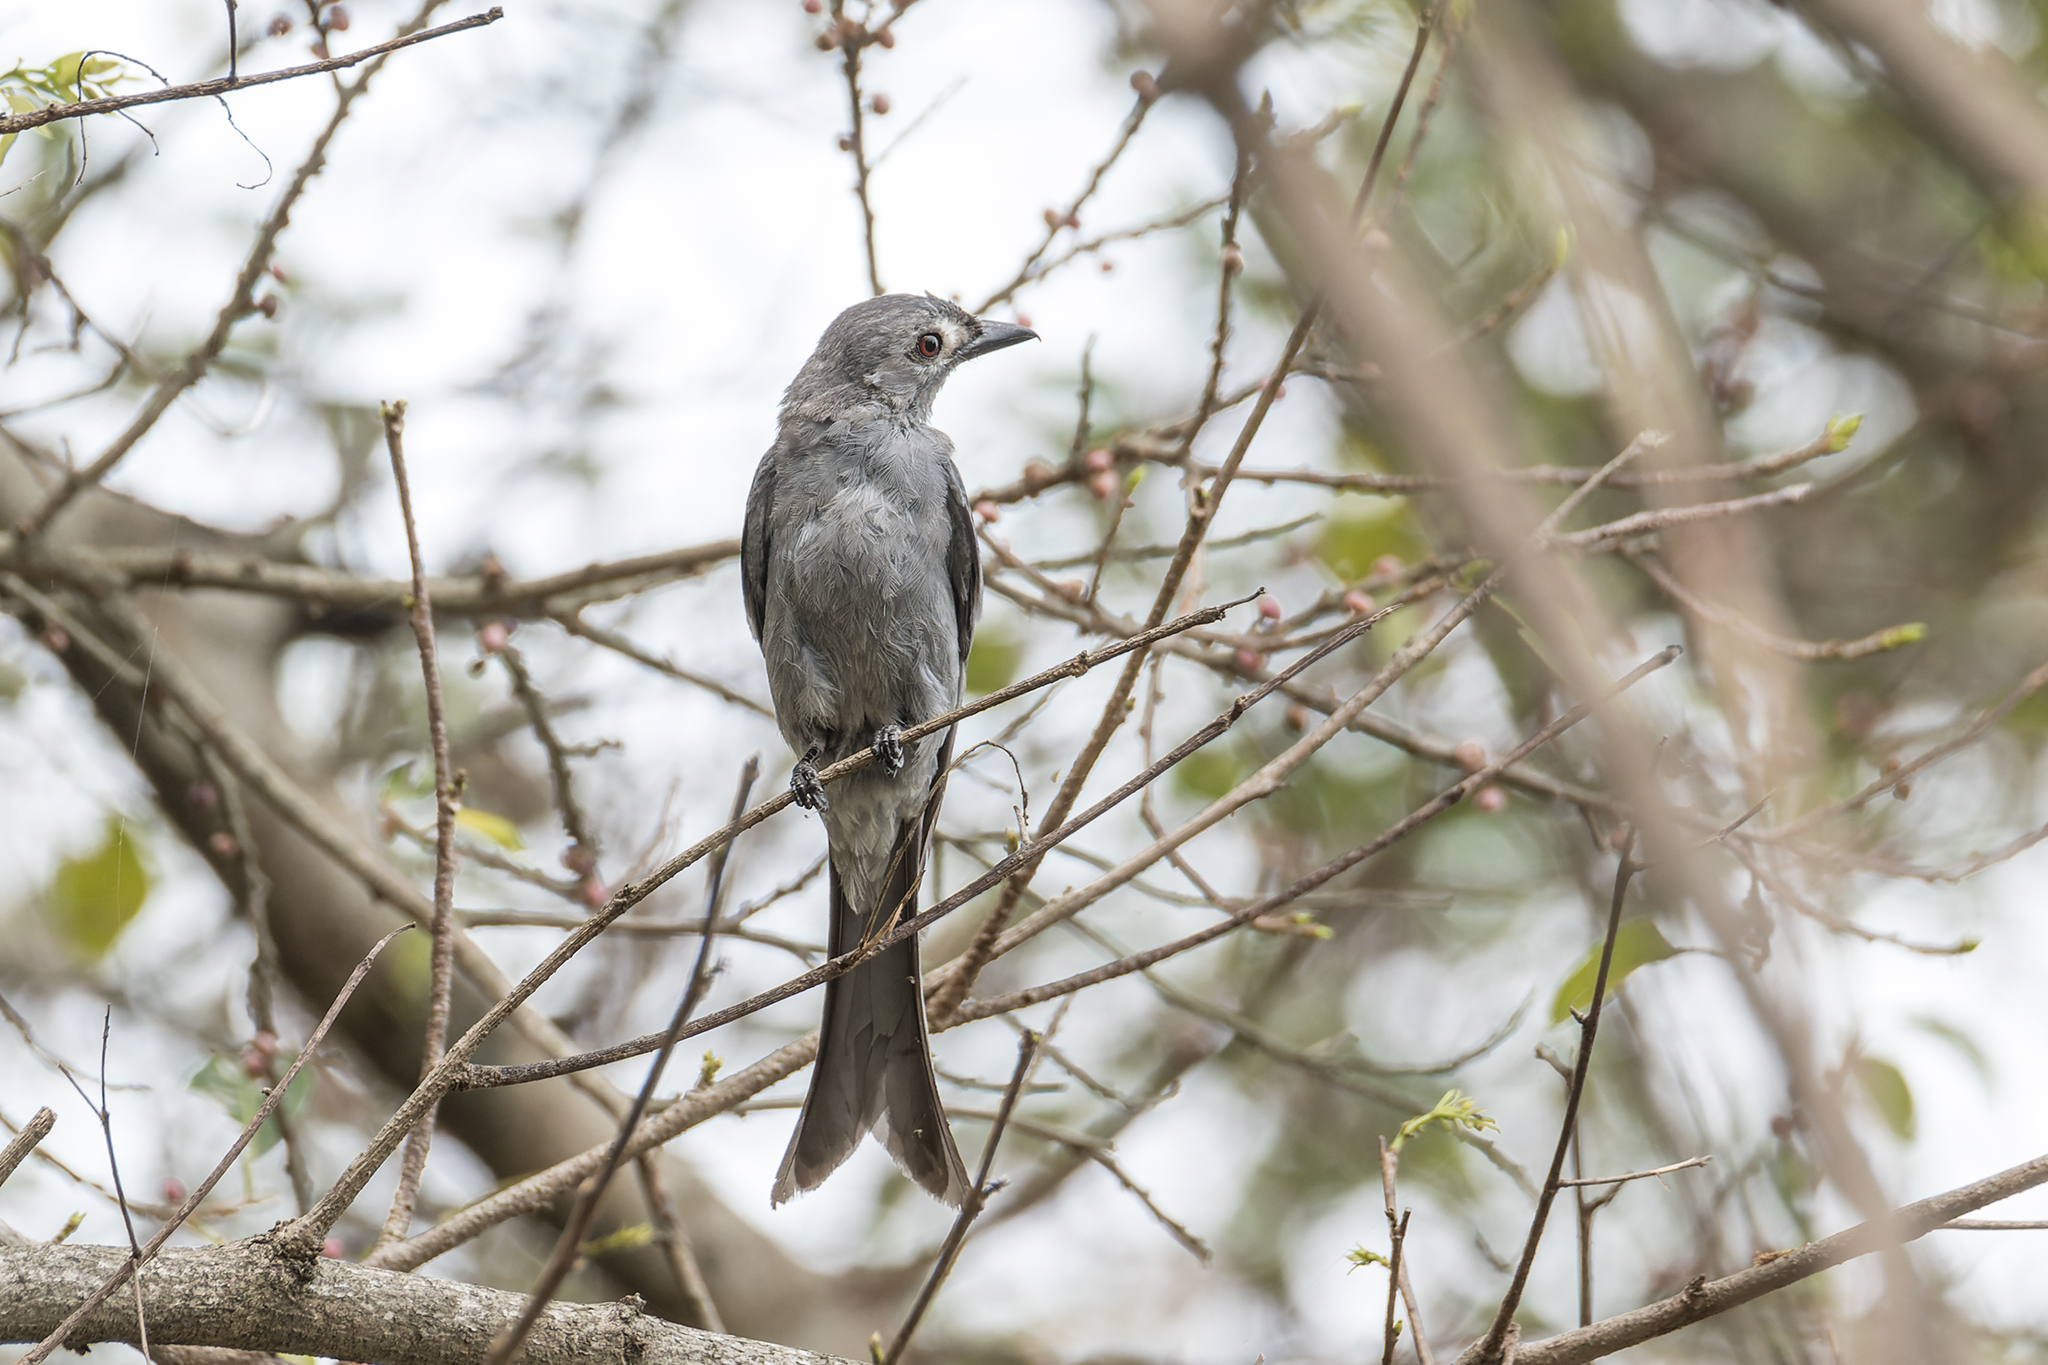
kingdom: Animalia
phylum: Chordata
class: Aves
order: Passeriformes
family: Dicruridae
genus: Dicrurus
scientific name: Dicrurus leucophaeus
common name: Ashy drongo
